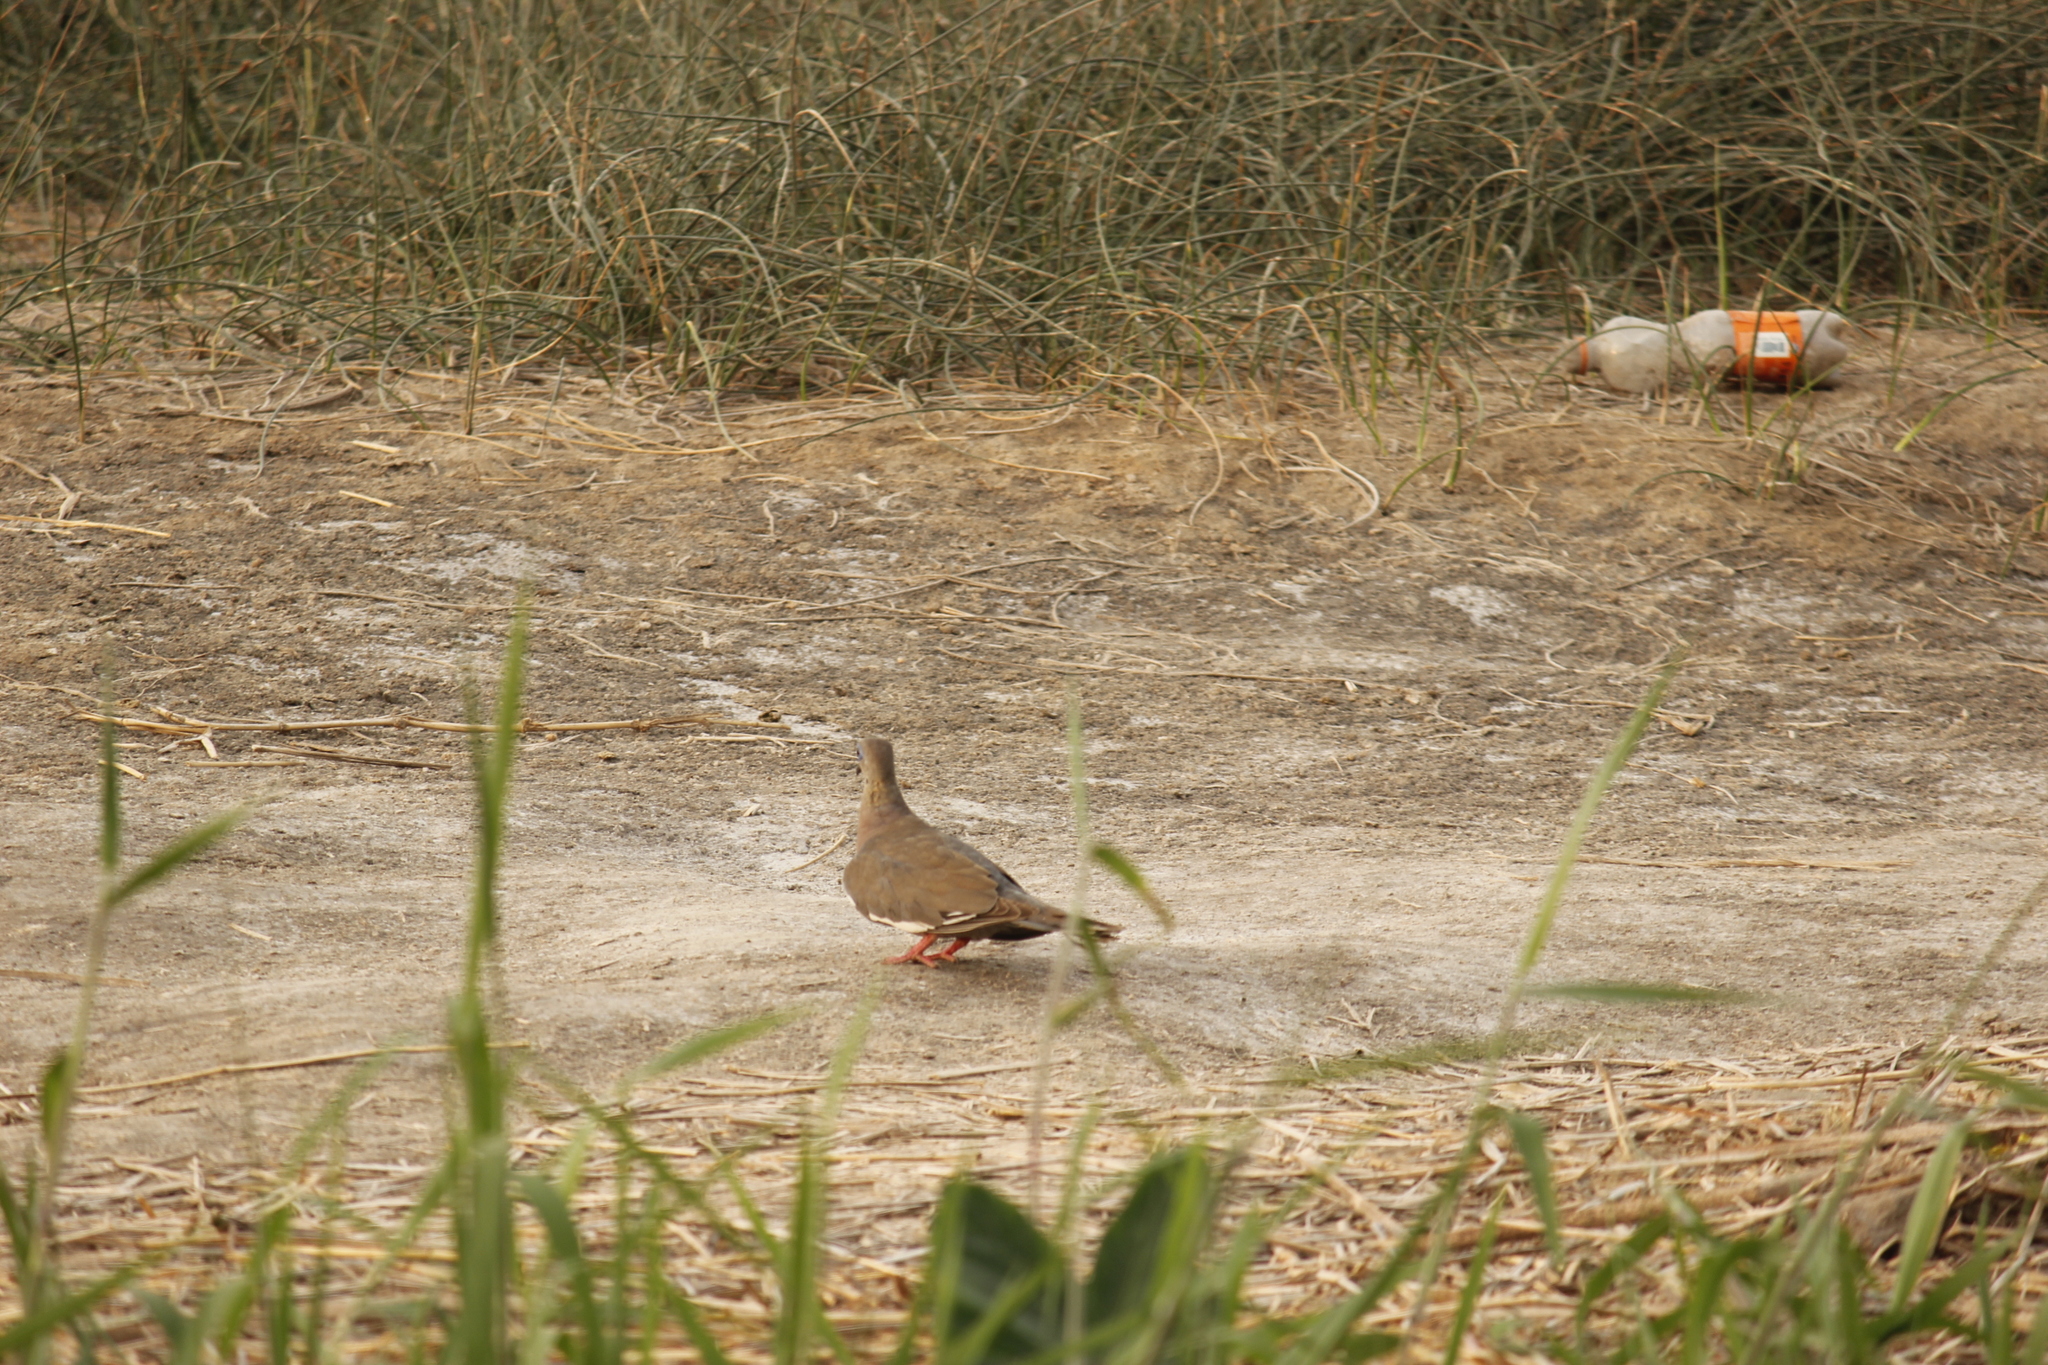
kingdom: Animalia
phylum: Chordata
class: Aves
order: Columbiformes
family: Columbidae
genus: Zenaida
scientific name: Zenaida meloda
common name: West peruvian dove
